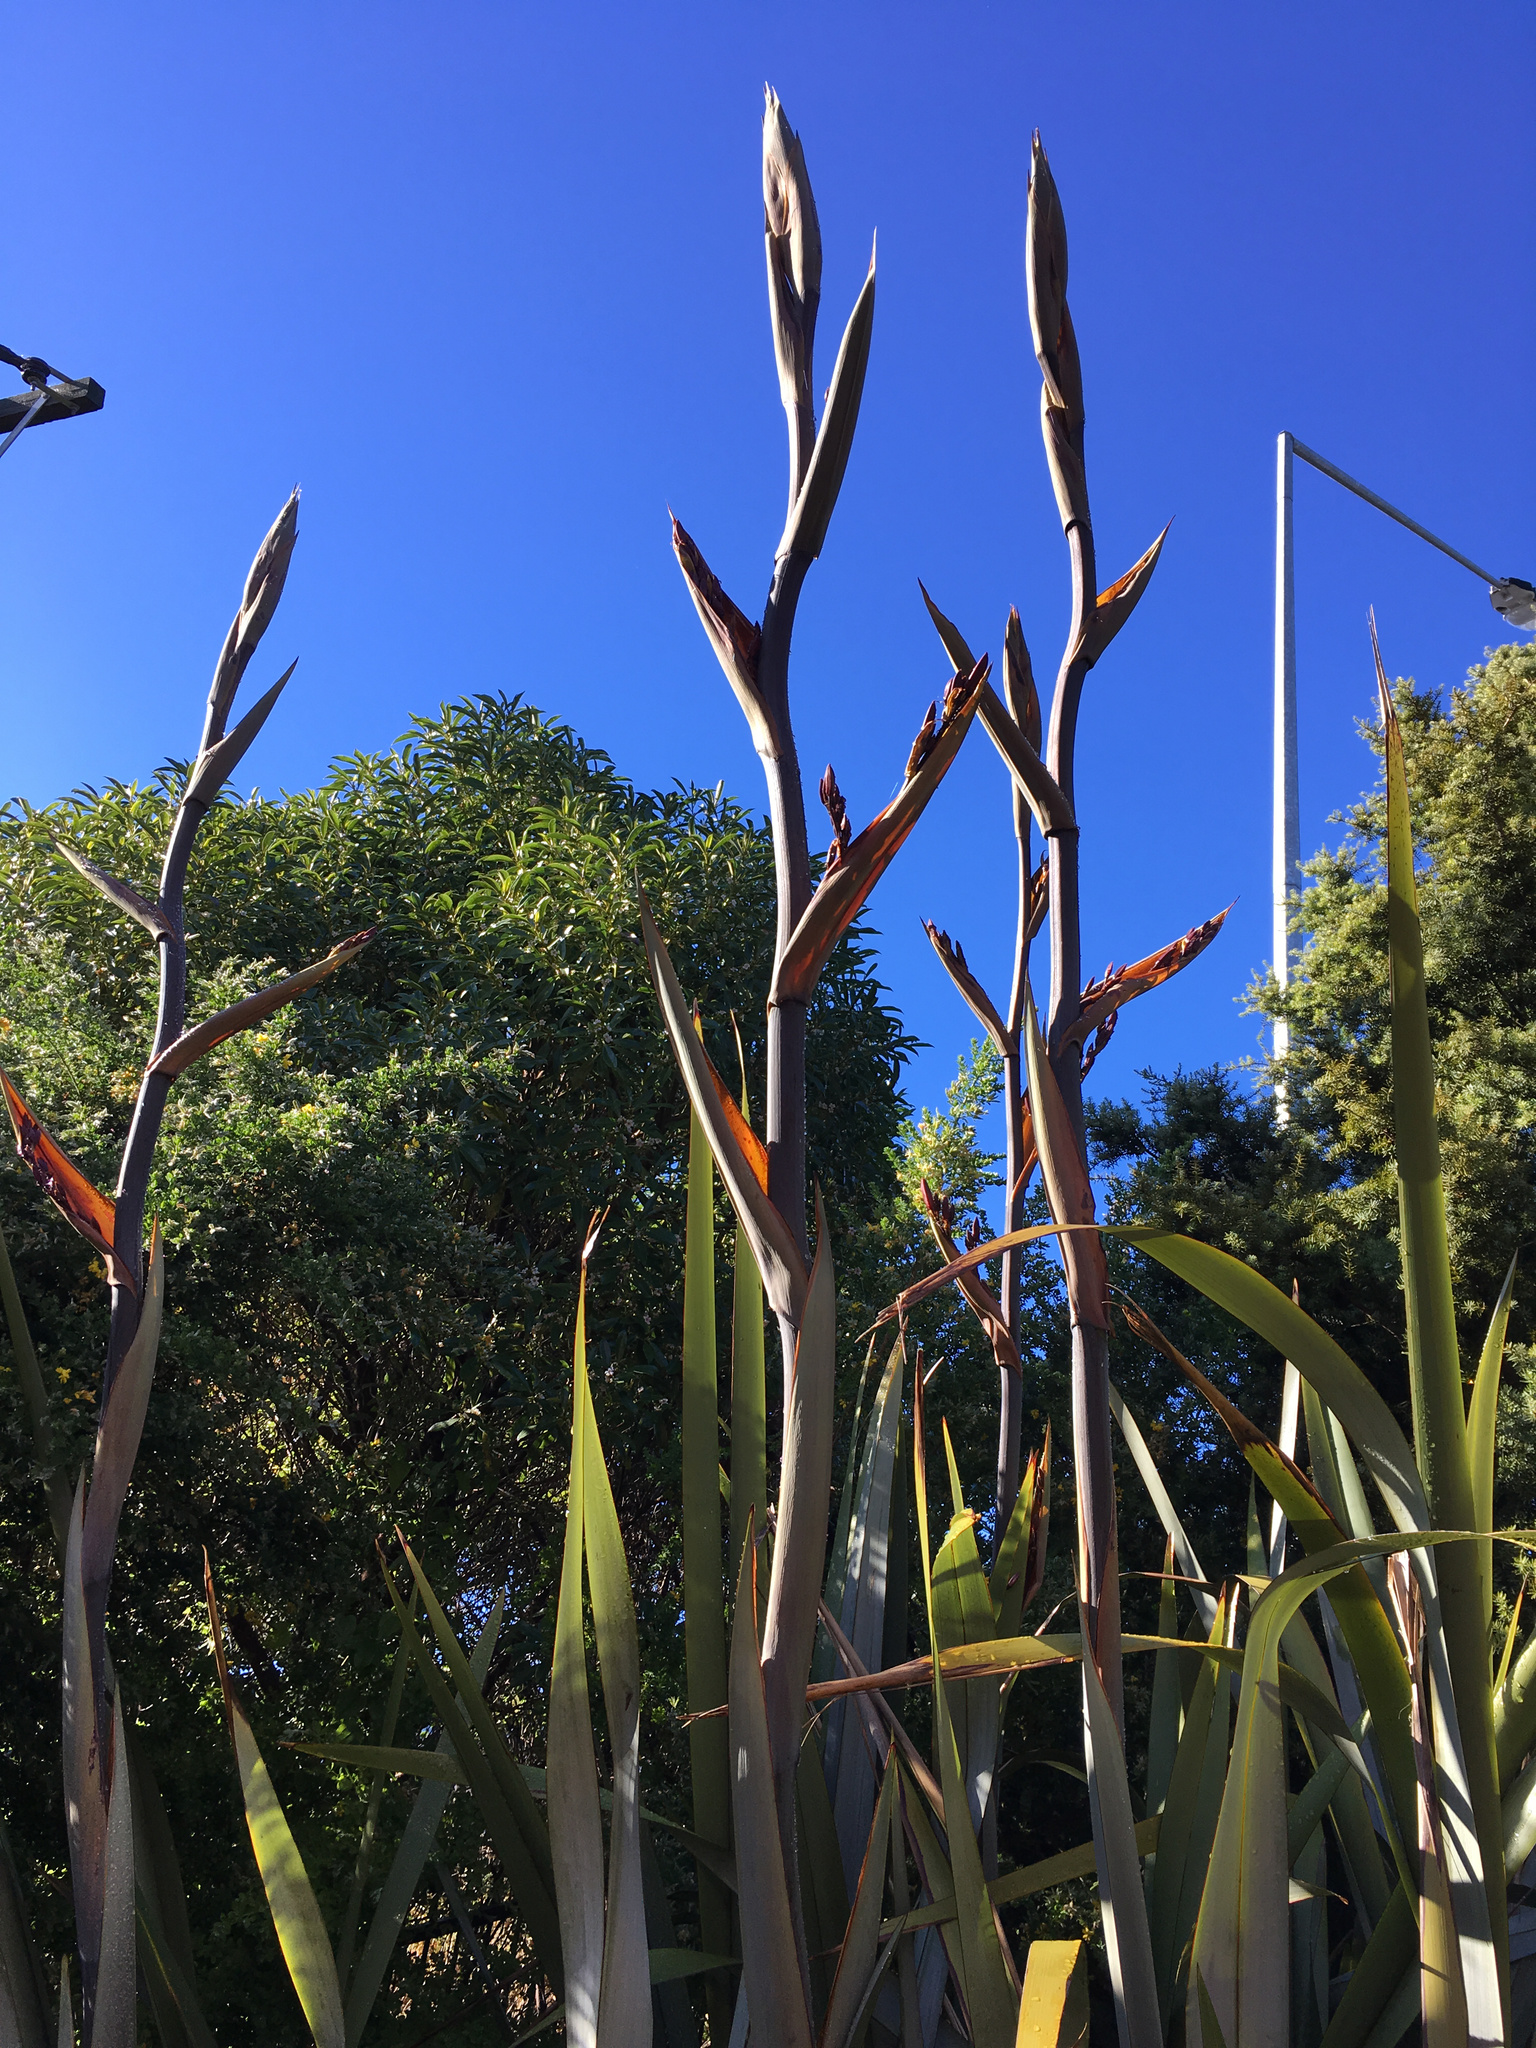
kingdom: Plantae
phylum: Tracheophyta
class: Liliopsida
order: Asparagales
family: Asphodelaceae
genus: Phormium
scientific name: Phormium tenax
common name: New zealand flax
